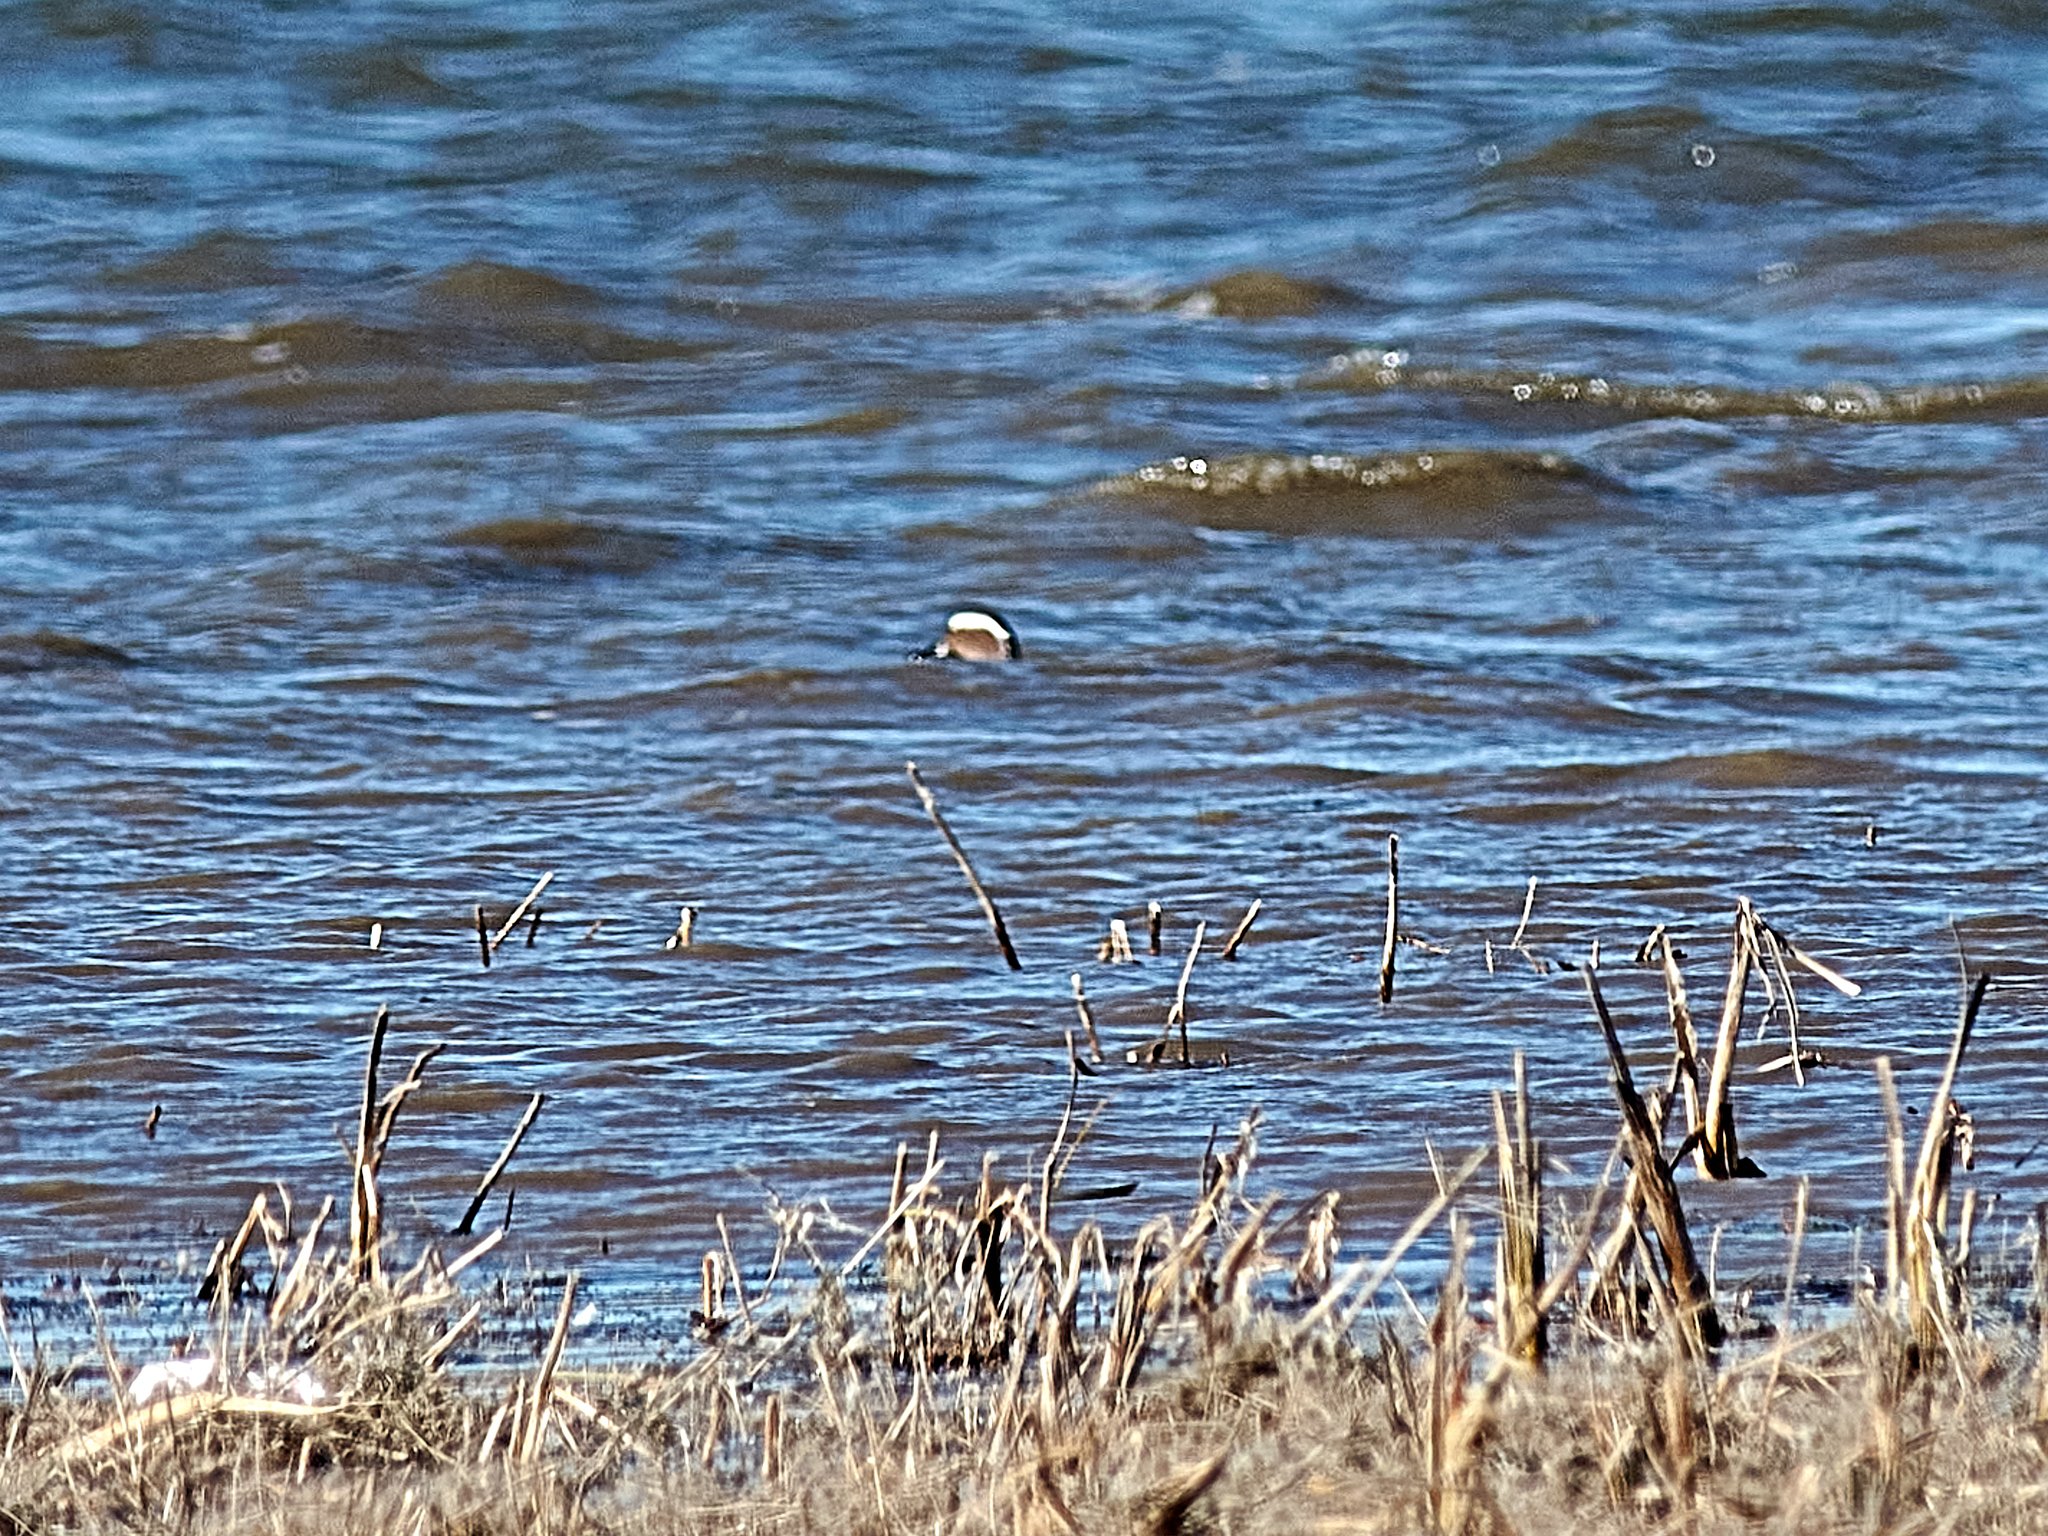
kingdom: Animalia
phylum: Chordata
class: Aves
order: Anseriformes
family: Anatidae
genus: Spatula
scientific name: Spatula querquedula
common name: Garganey
